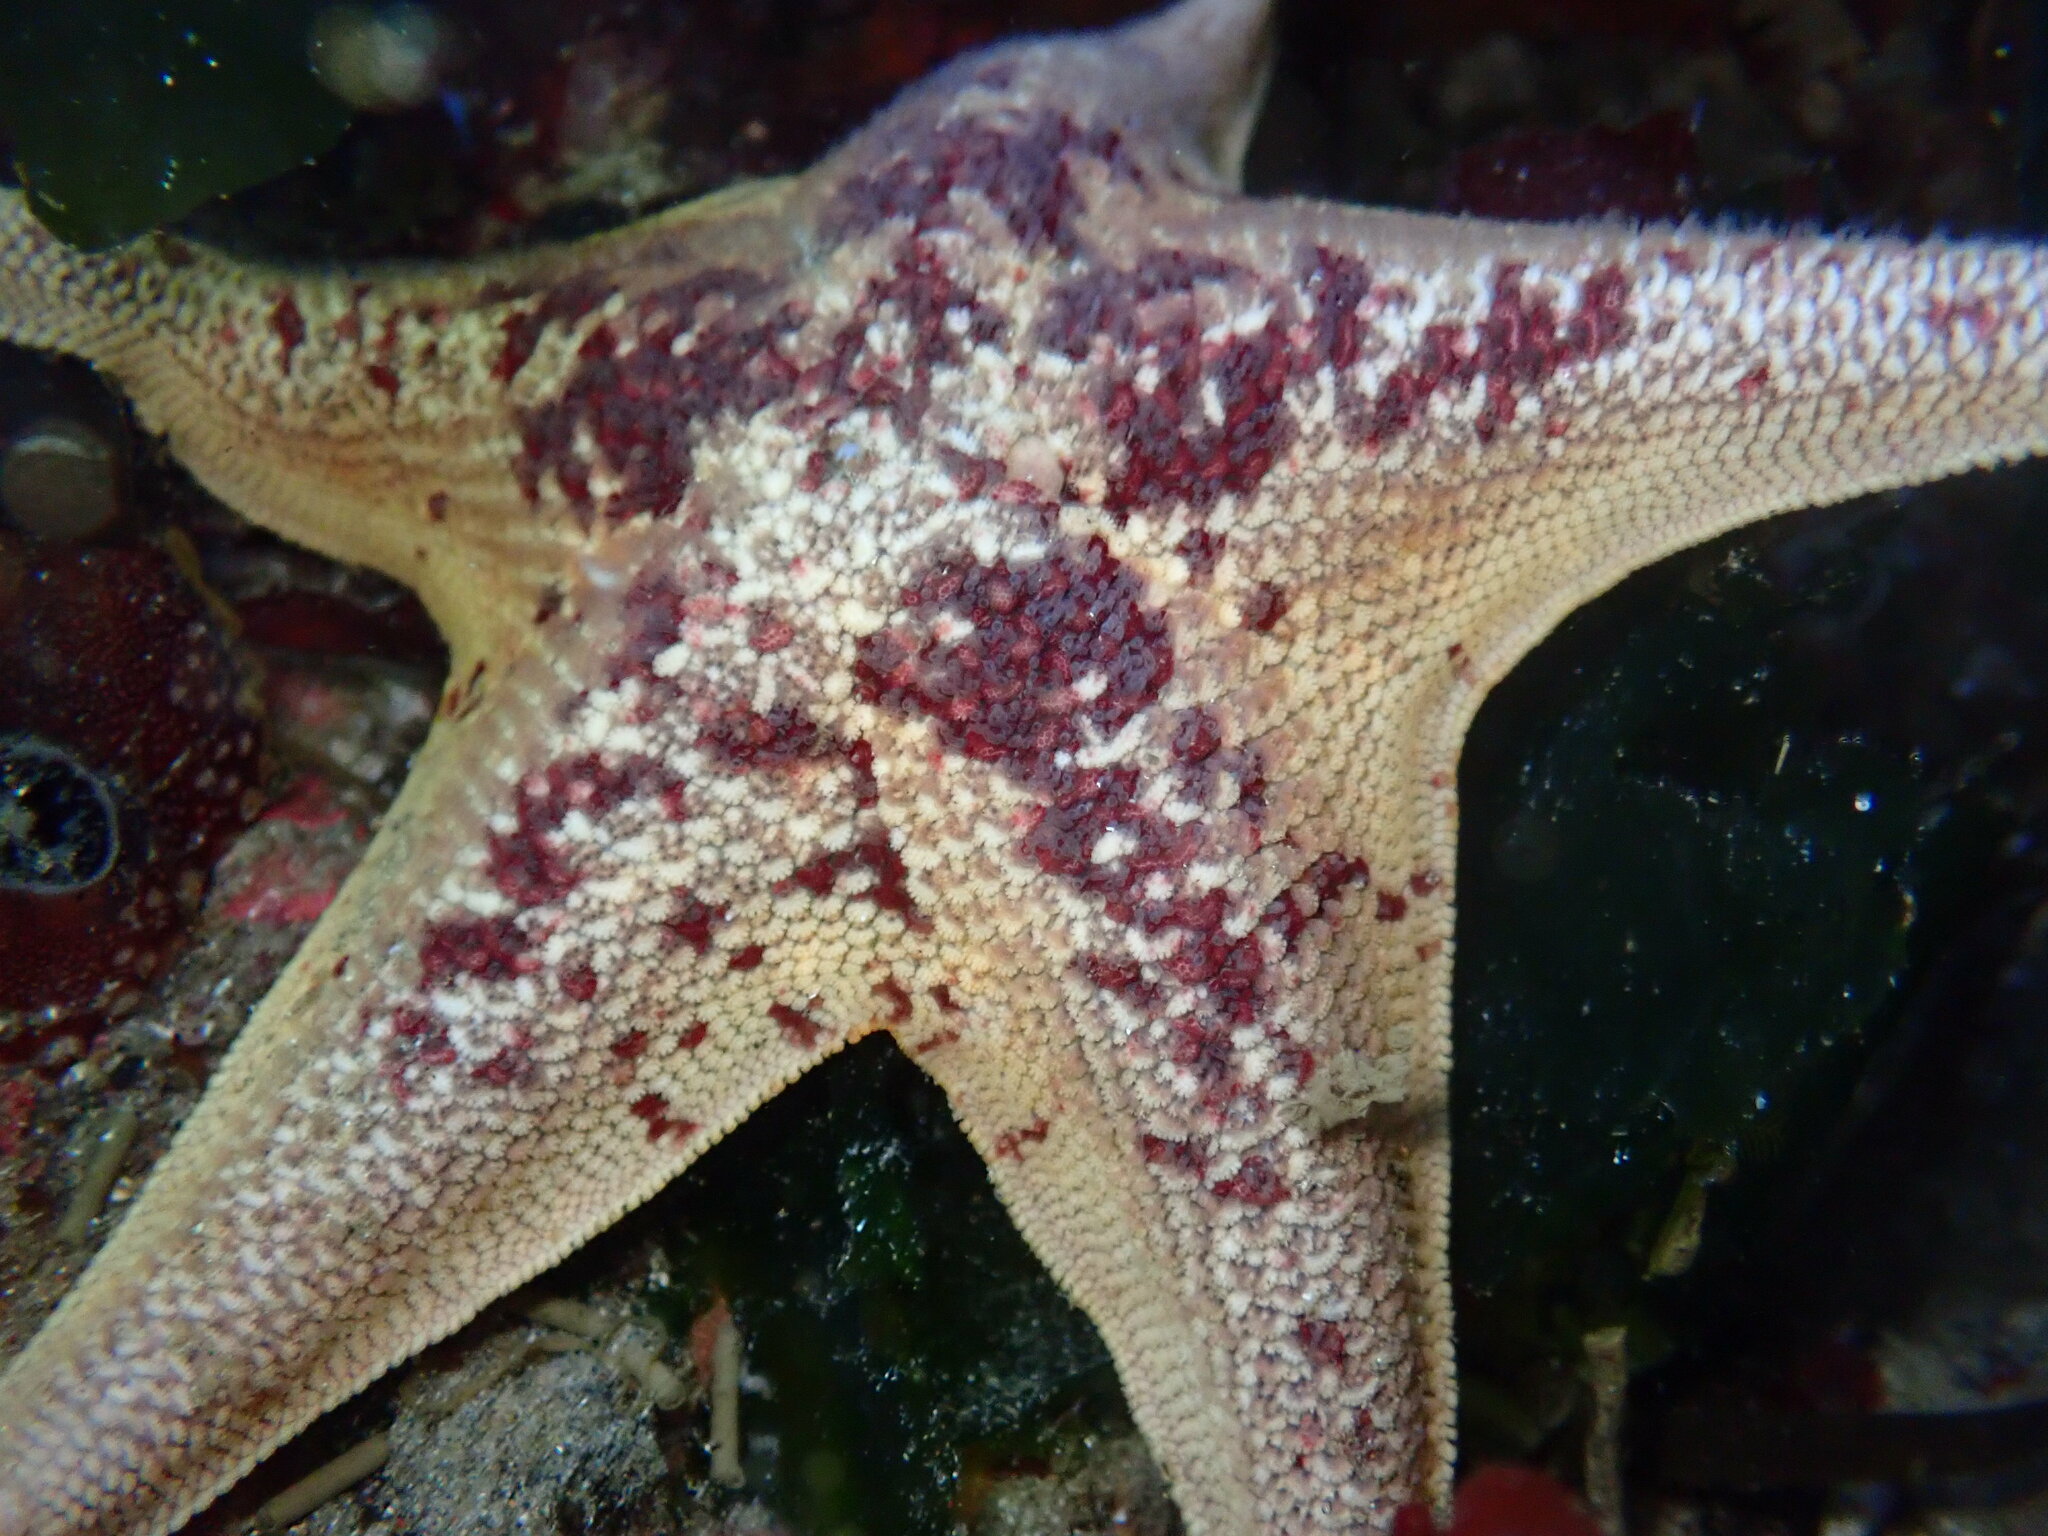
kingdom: Animalia
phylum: Echinodermata
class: Asteroidea
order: Valvatida
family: Asterinidae
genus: Patiria
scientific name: Patiria miniata
